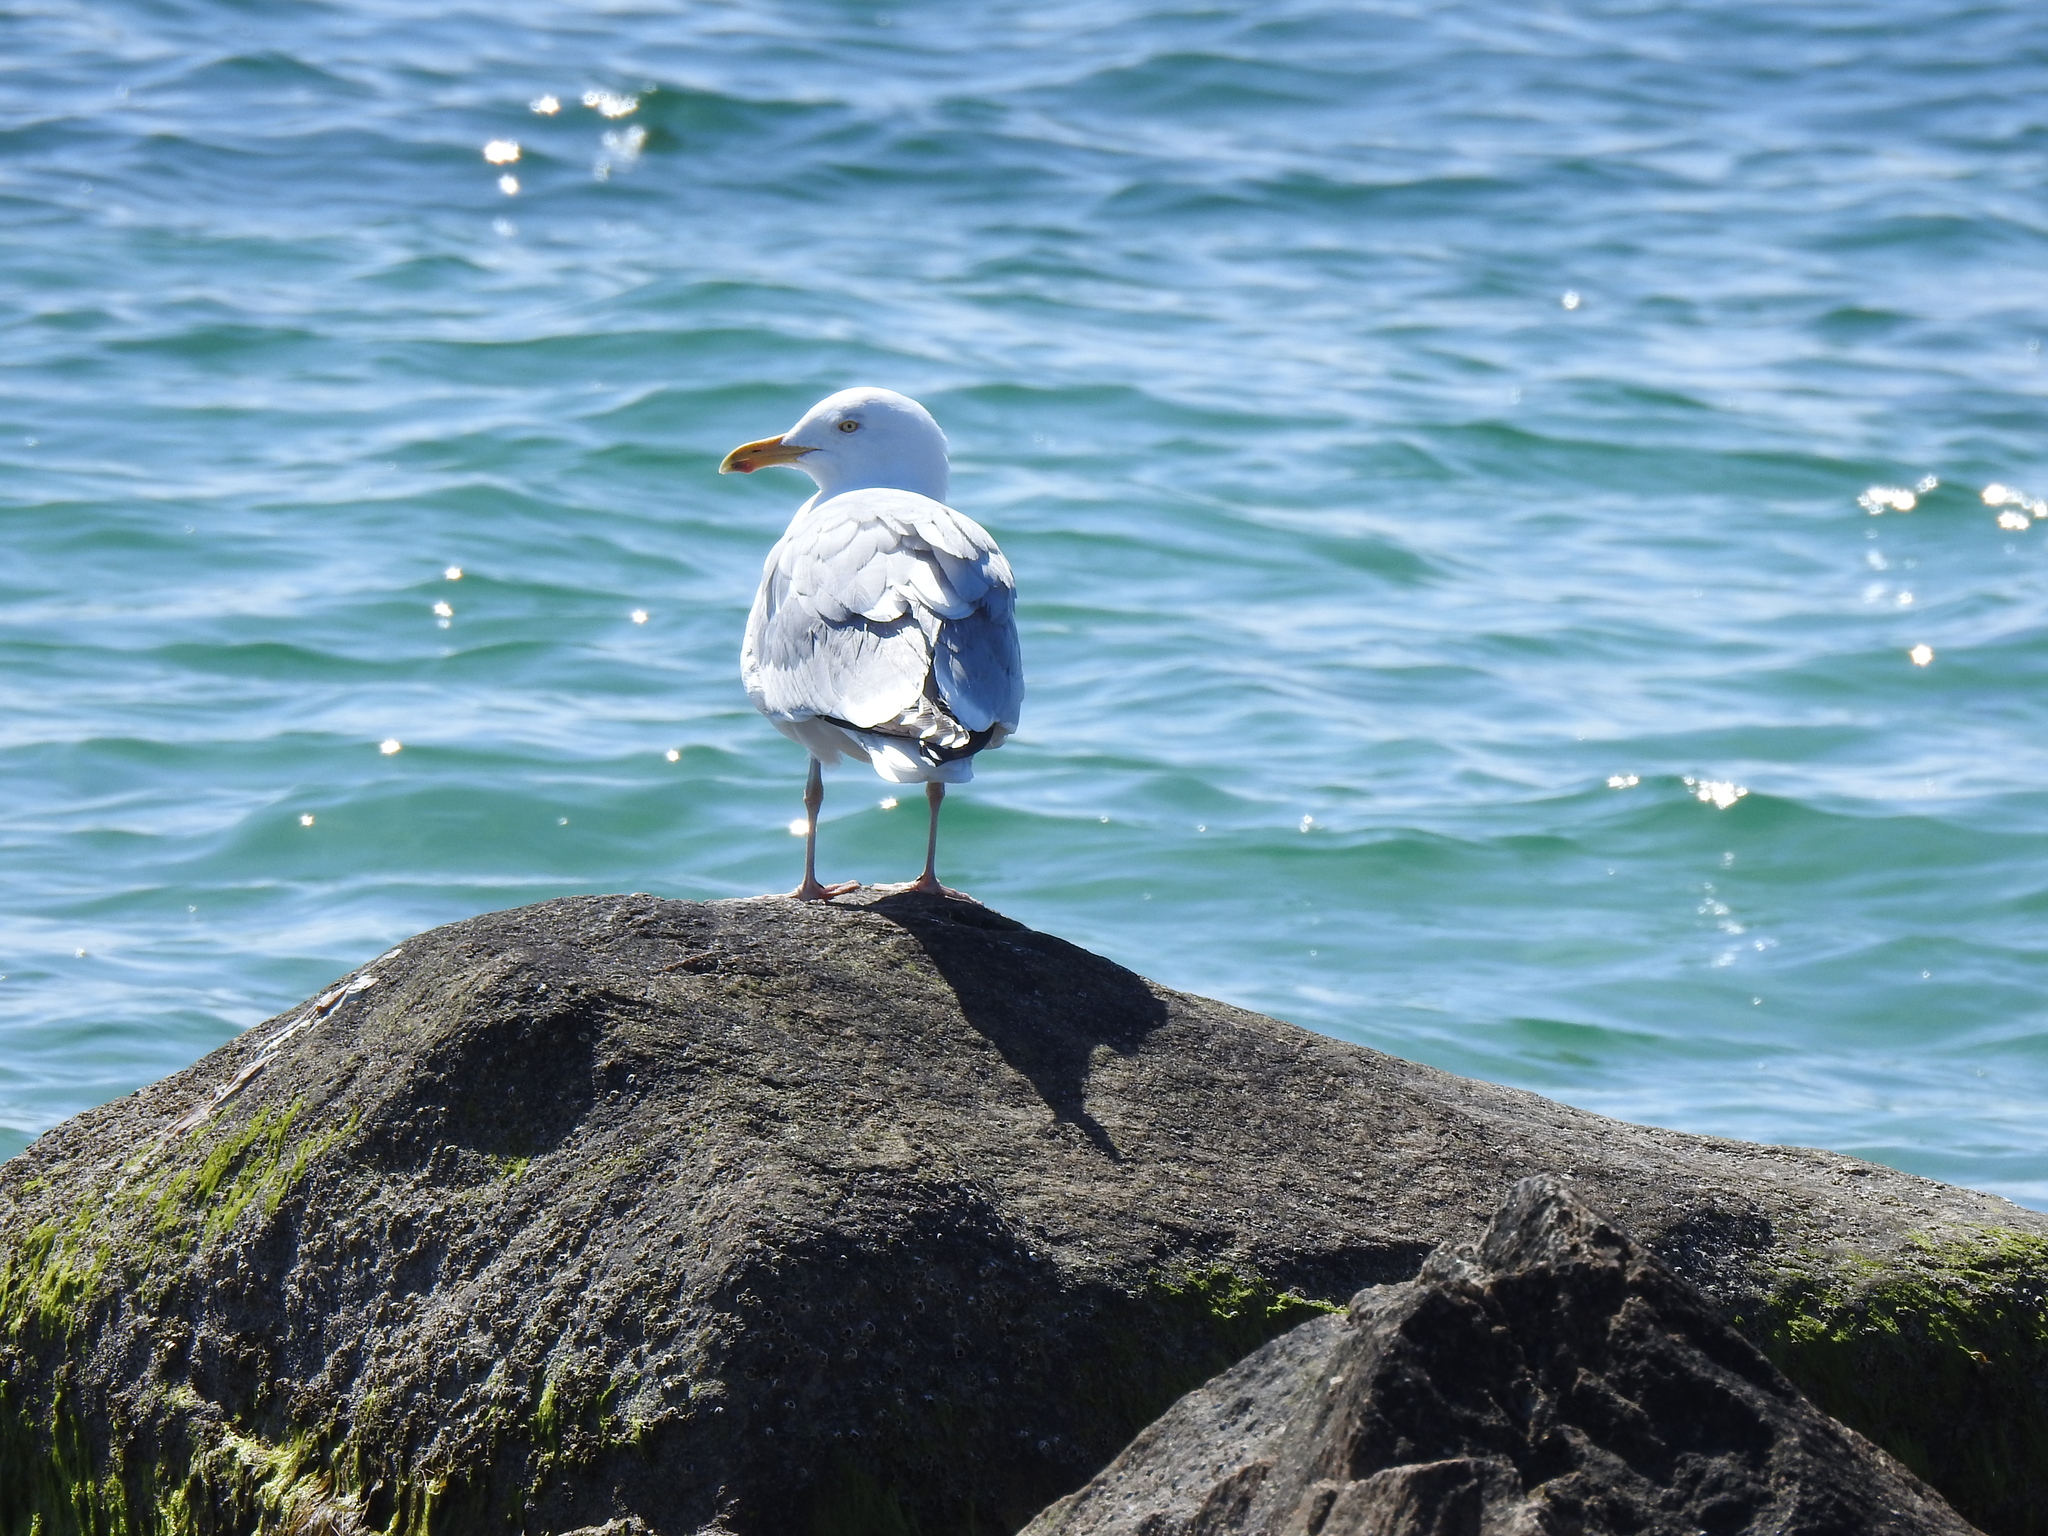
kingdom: Animalia
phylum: Chordata
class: Aves
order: Charadriiformes
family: Laridae
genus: Larus
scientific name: Larus argentatus
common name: Herring gull
